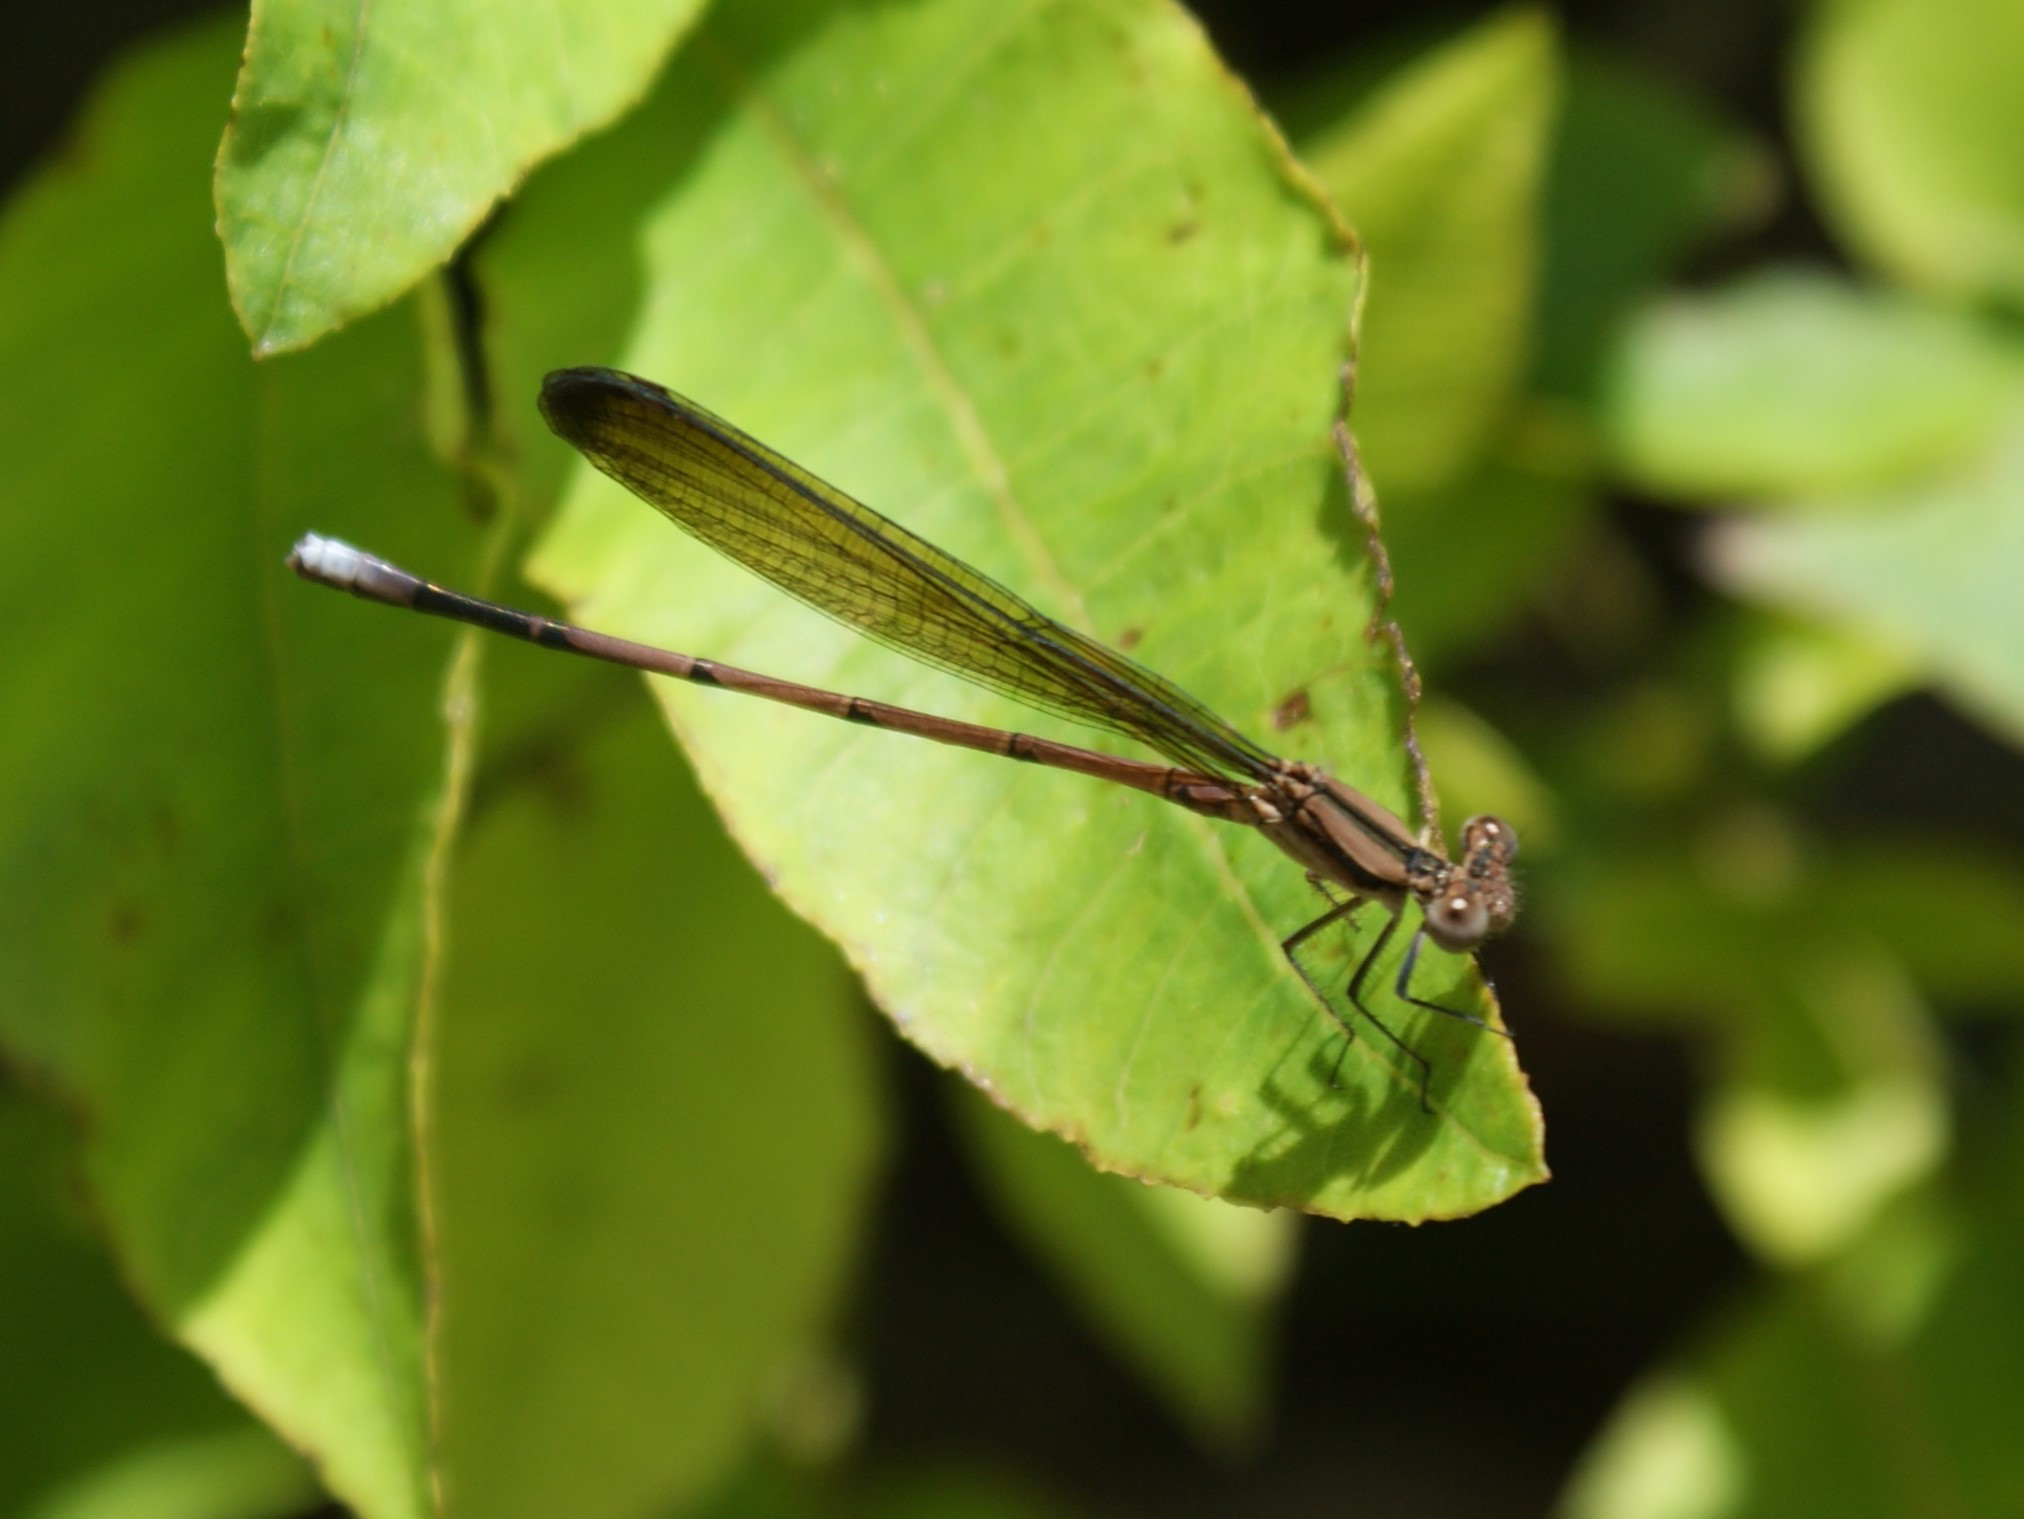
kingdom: Animalia
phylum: Arthropoda
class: Insecta
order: Odonata
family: Coenagrionidae
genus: Argia
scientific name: Argia fumipennis
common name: Variable dancer
